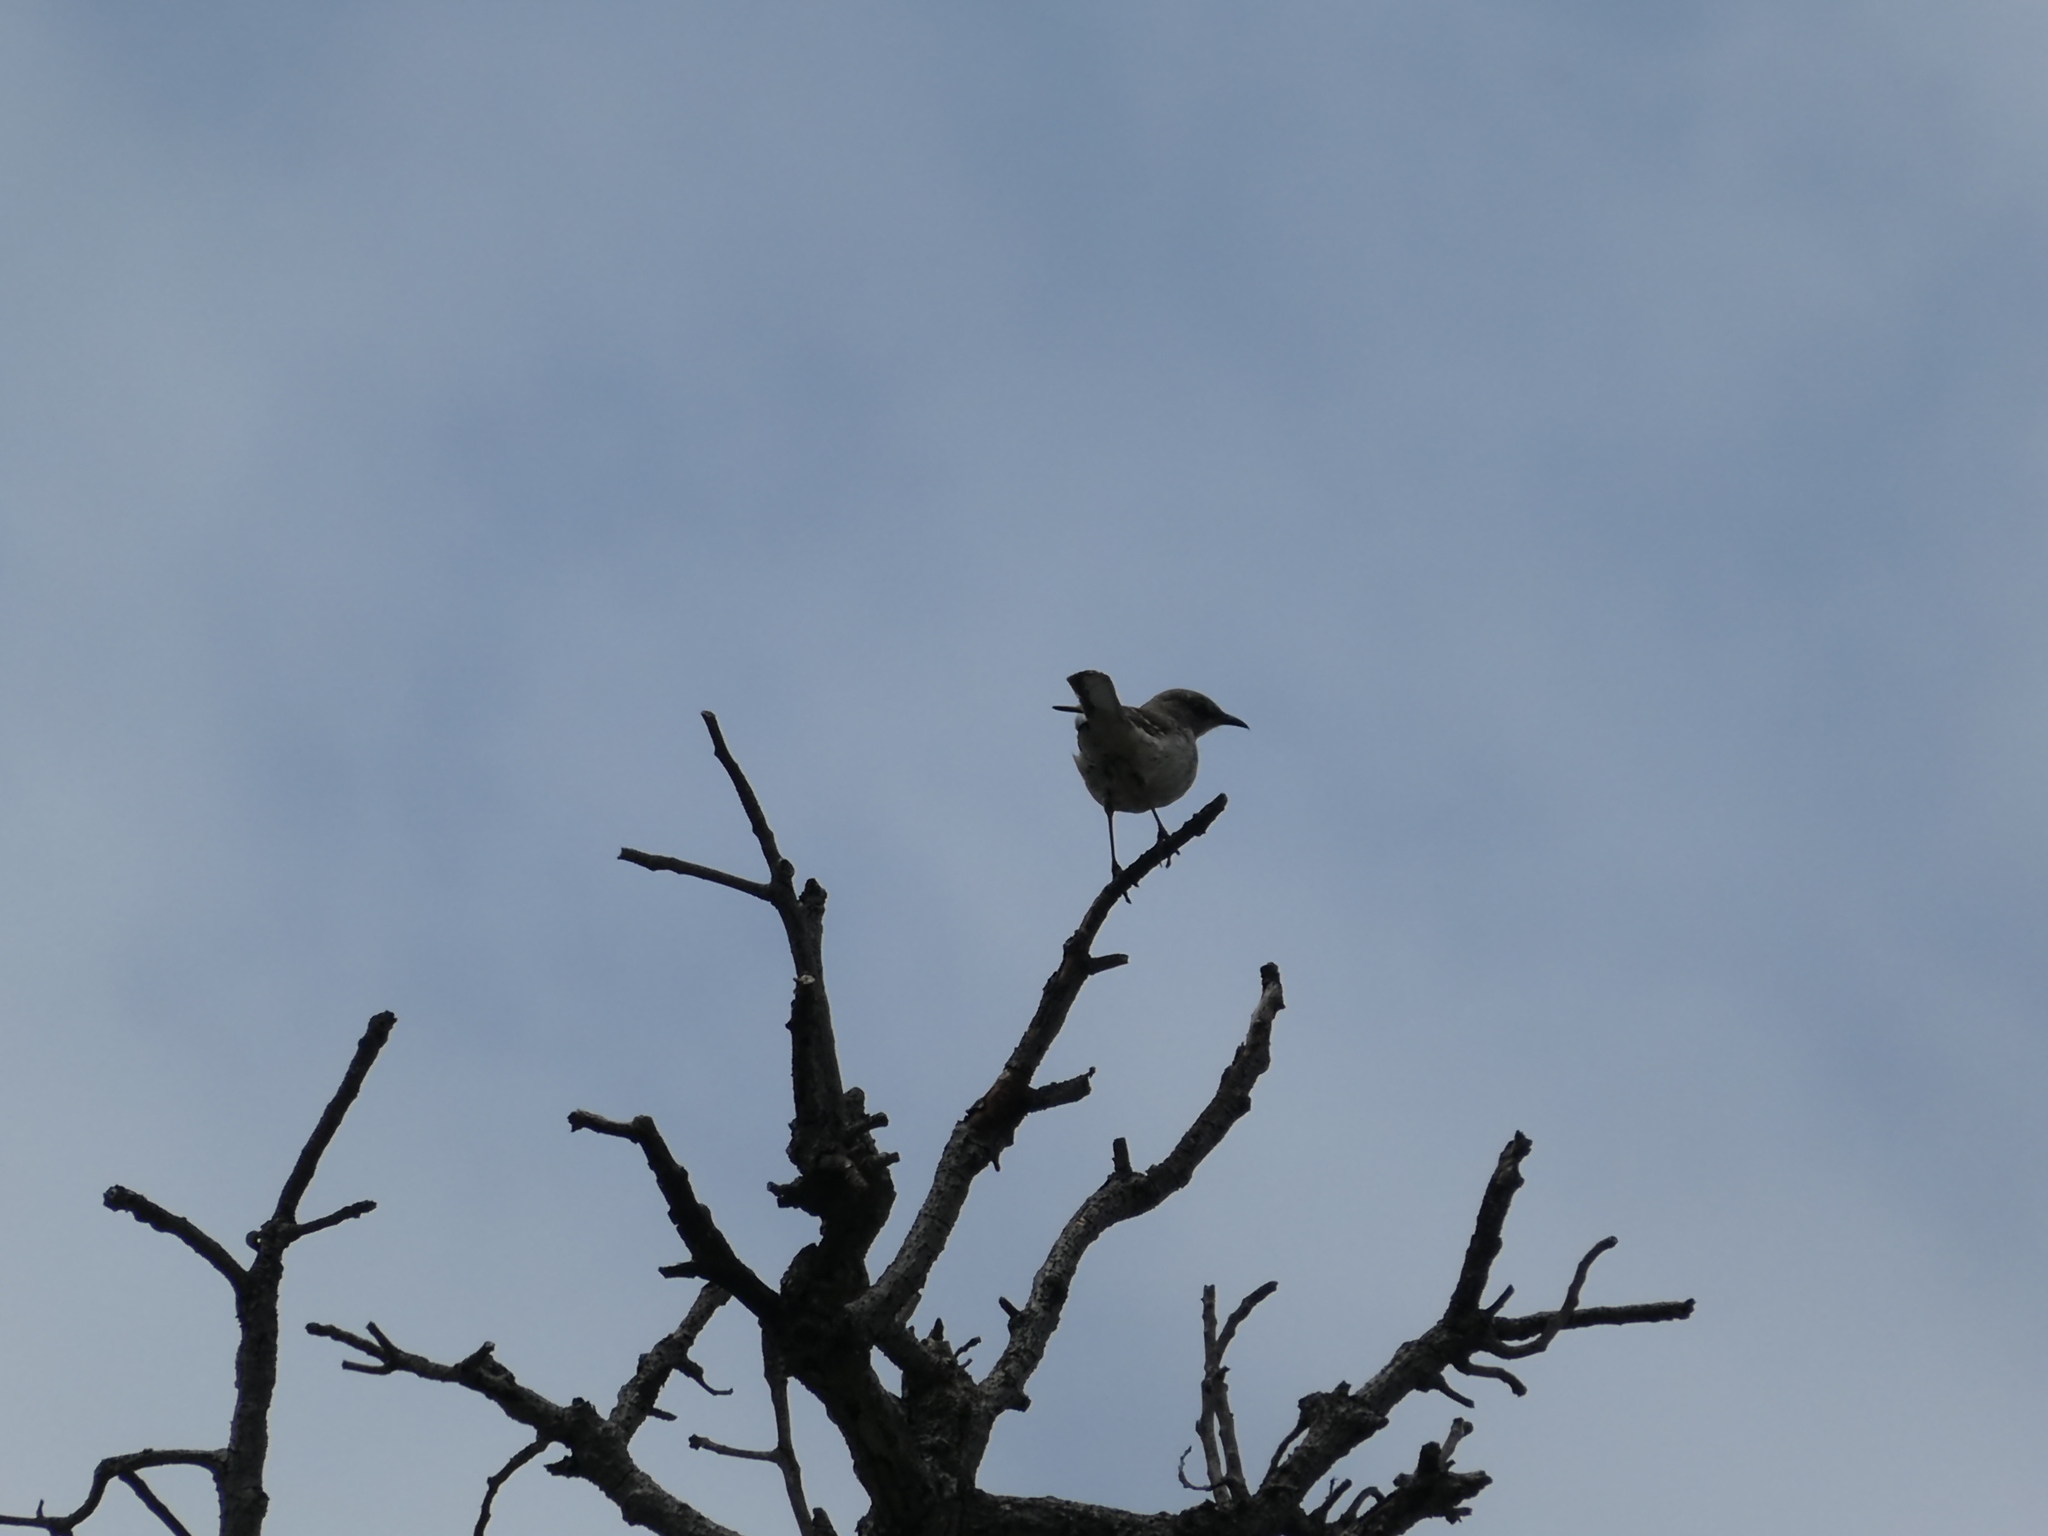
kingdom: Animalia
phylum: Chordata
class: Aves
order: Passeriformes
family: Mimidae
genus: Mimus
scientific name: Mimus polyglottos
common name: Northern mockingbird
